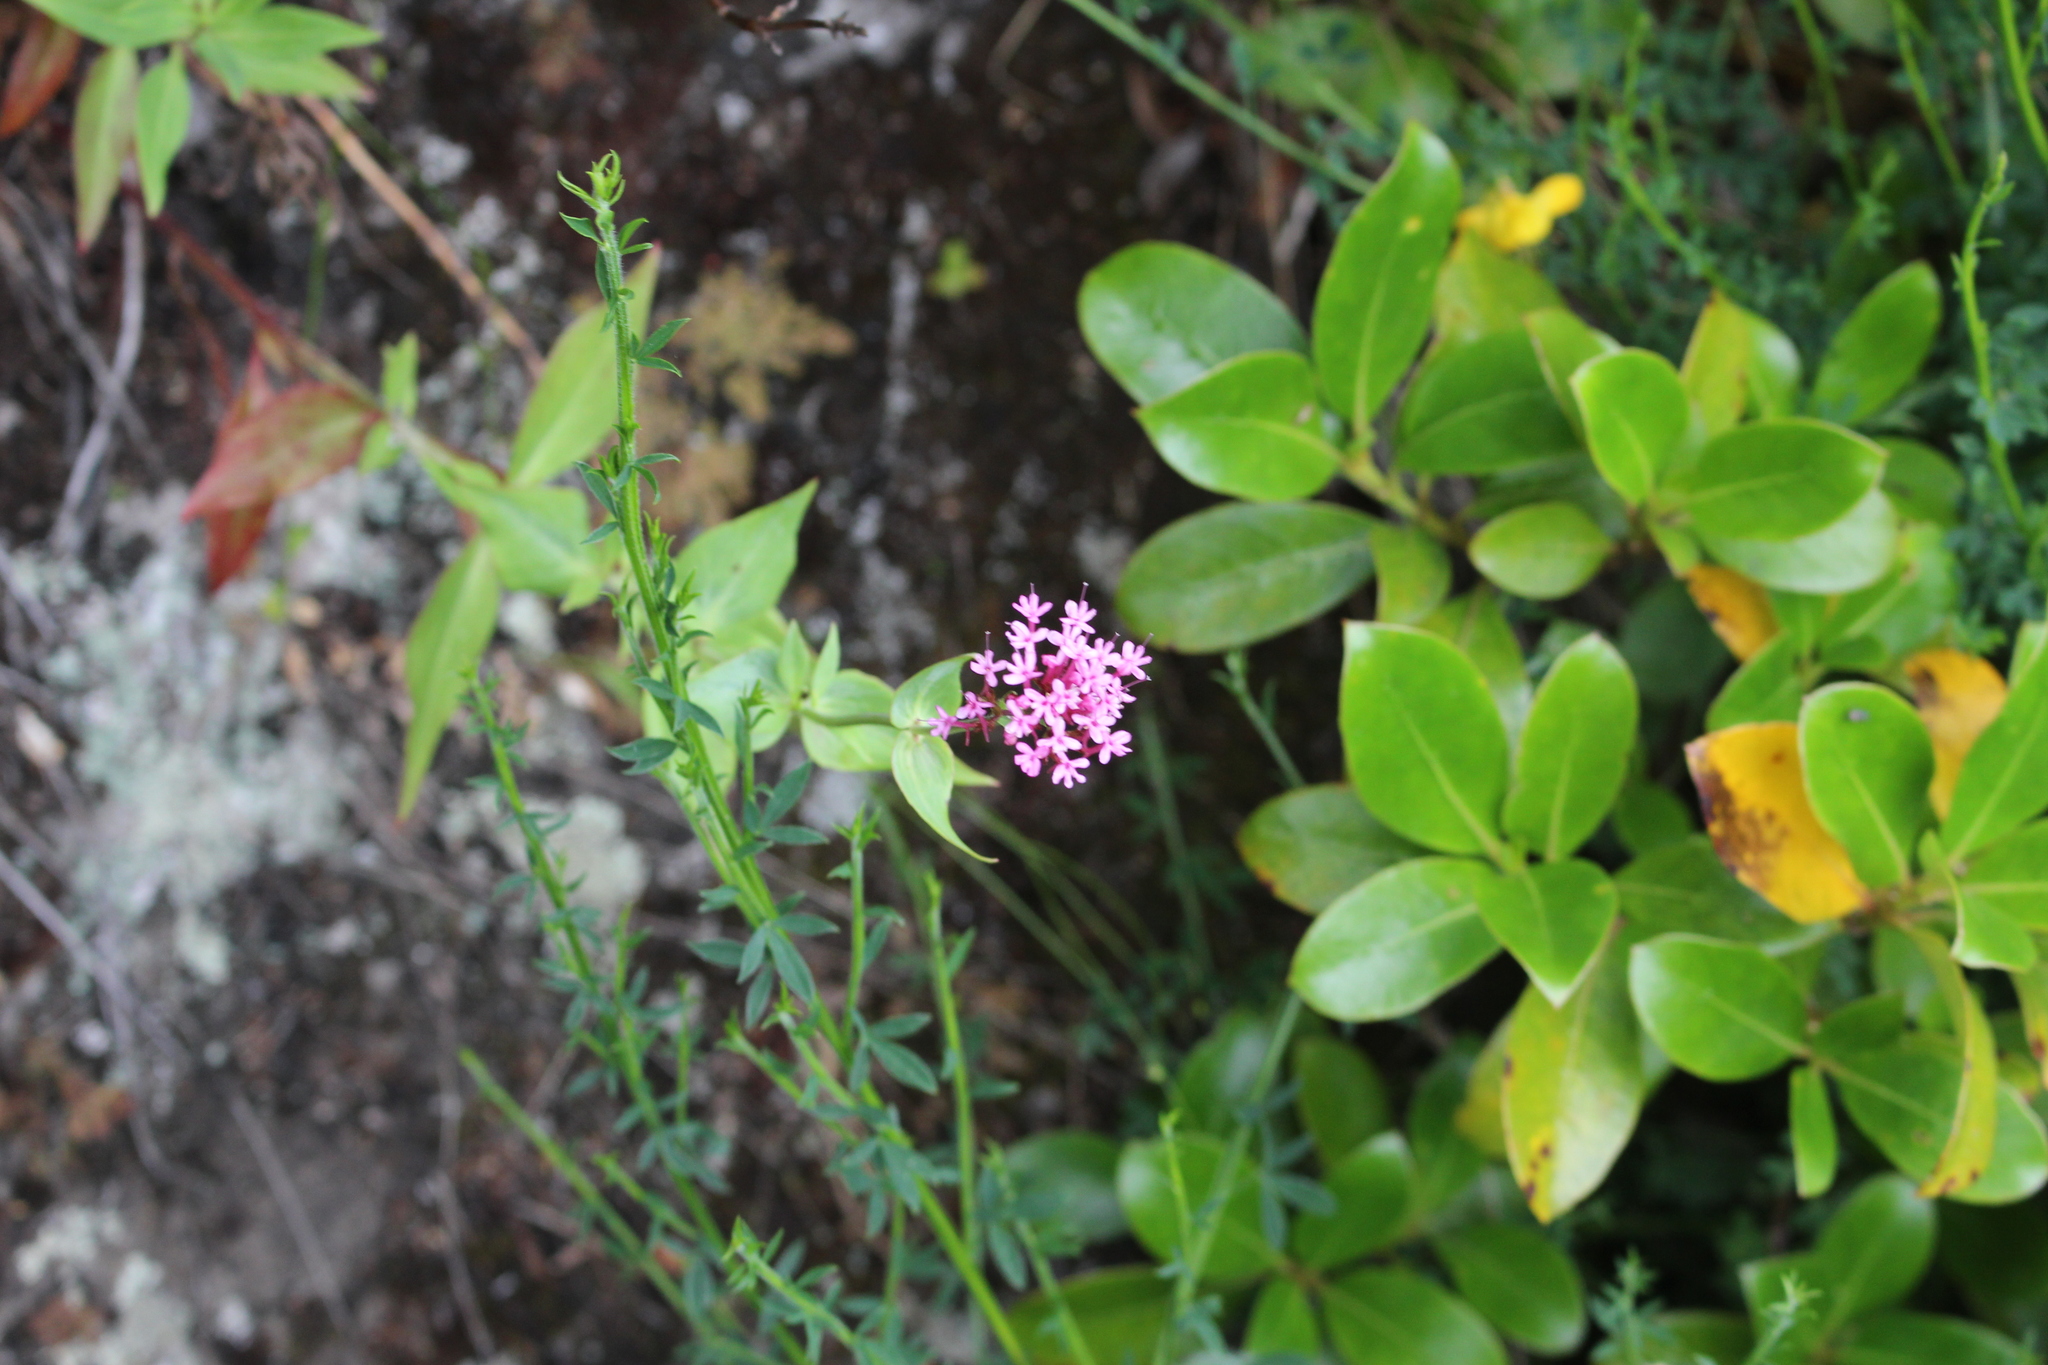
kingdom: Plantae
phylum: Tracheophyta
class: Magnoliopsida
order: Dipsacales
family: Caprifoliaceae
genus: Centranthus
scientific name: Centranthus ruber
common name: Red valerian
